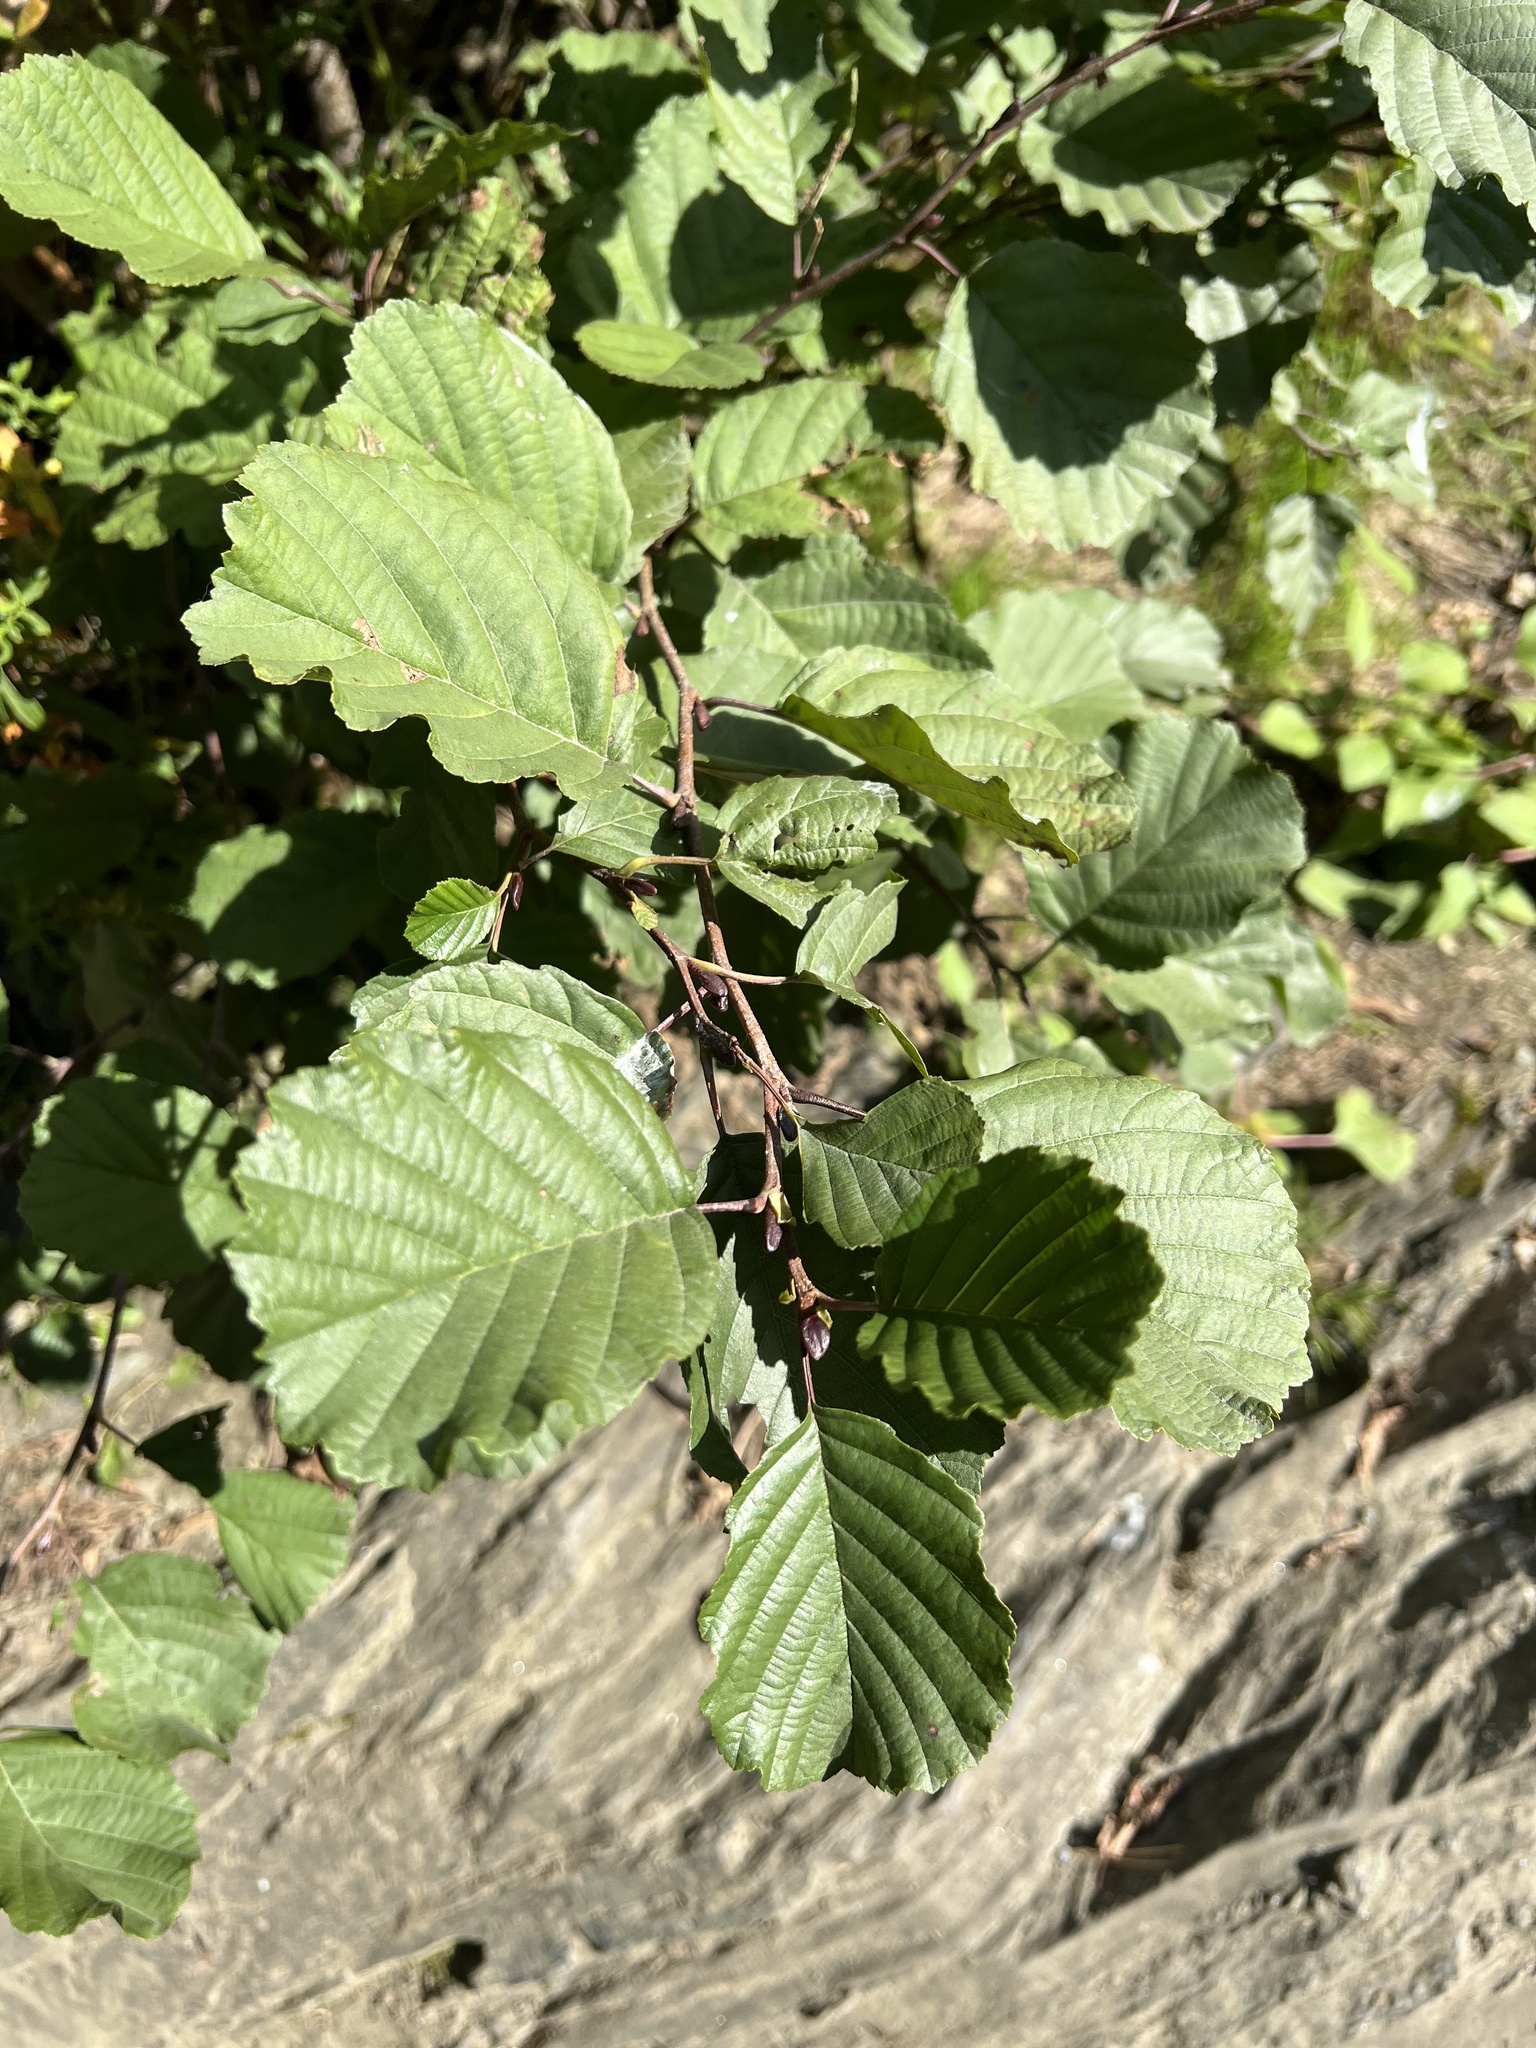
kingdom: Plantae
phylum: Tracheophyta
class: Magnoliopsida
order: Fagales
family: Betulaceae
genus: Alnus
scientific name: Alnus glutinosa
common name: Black alder
